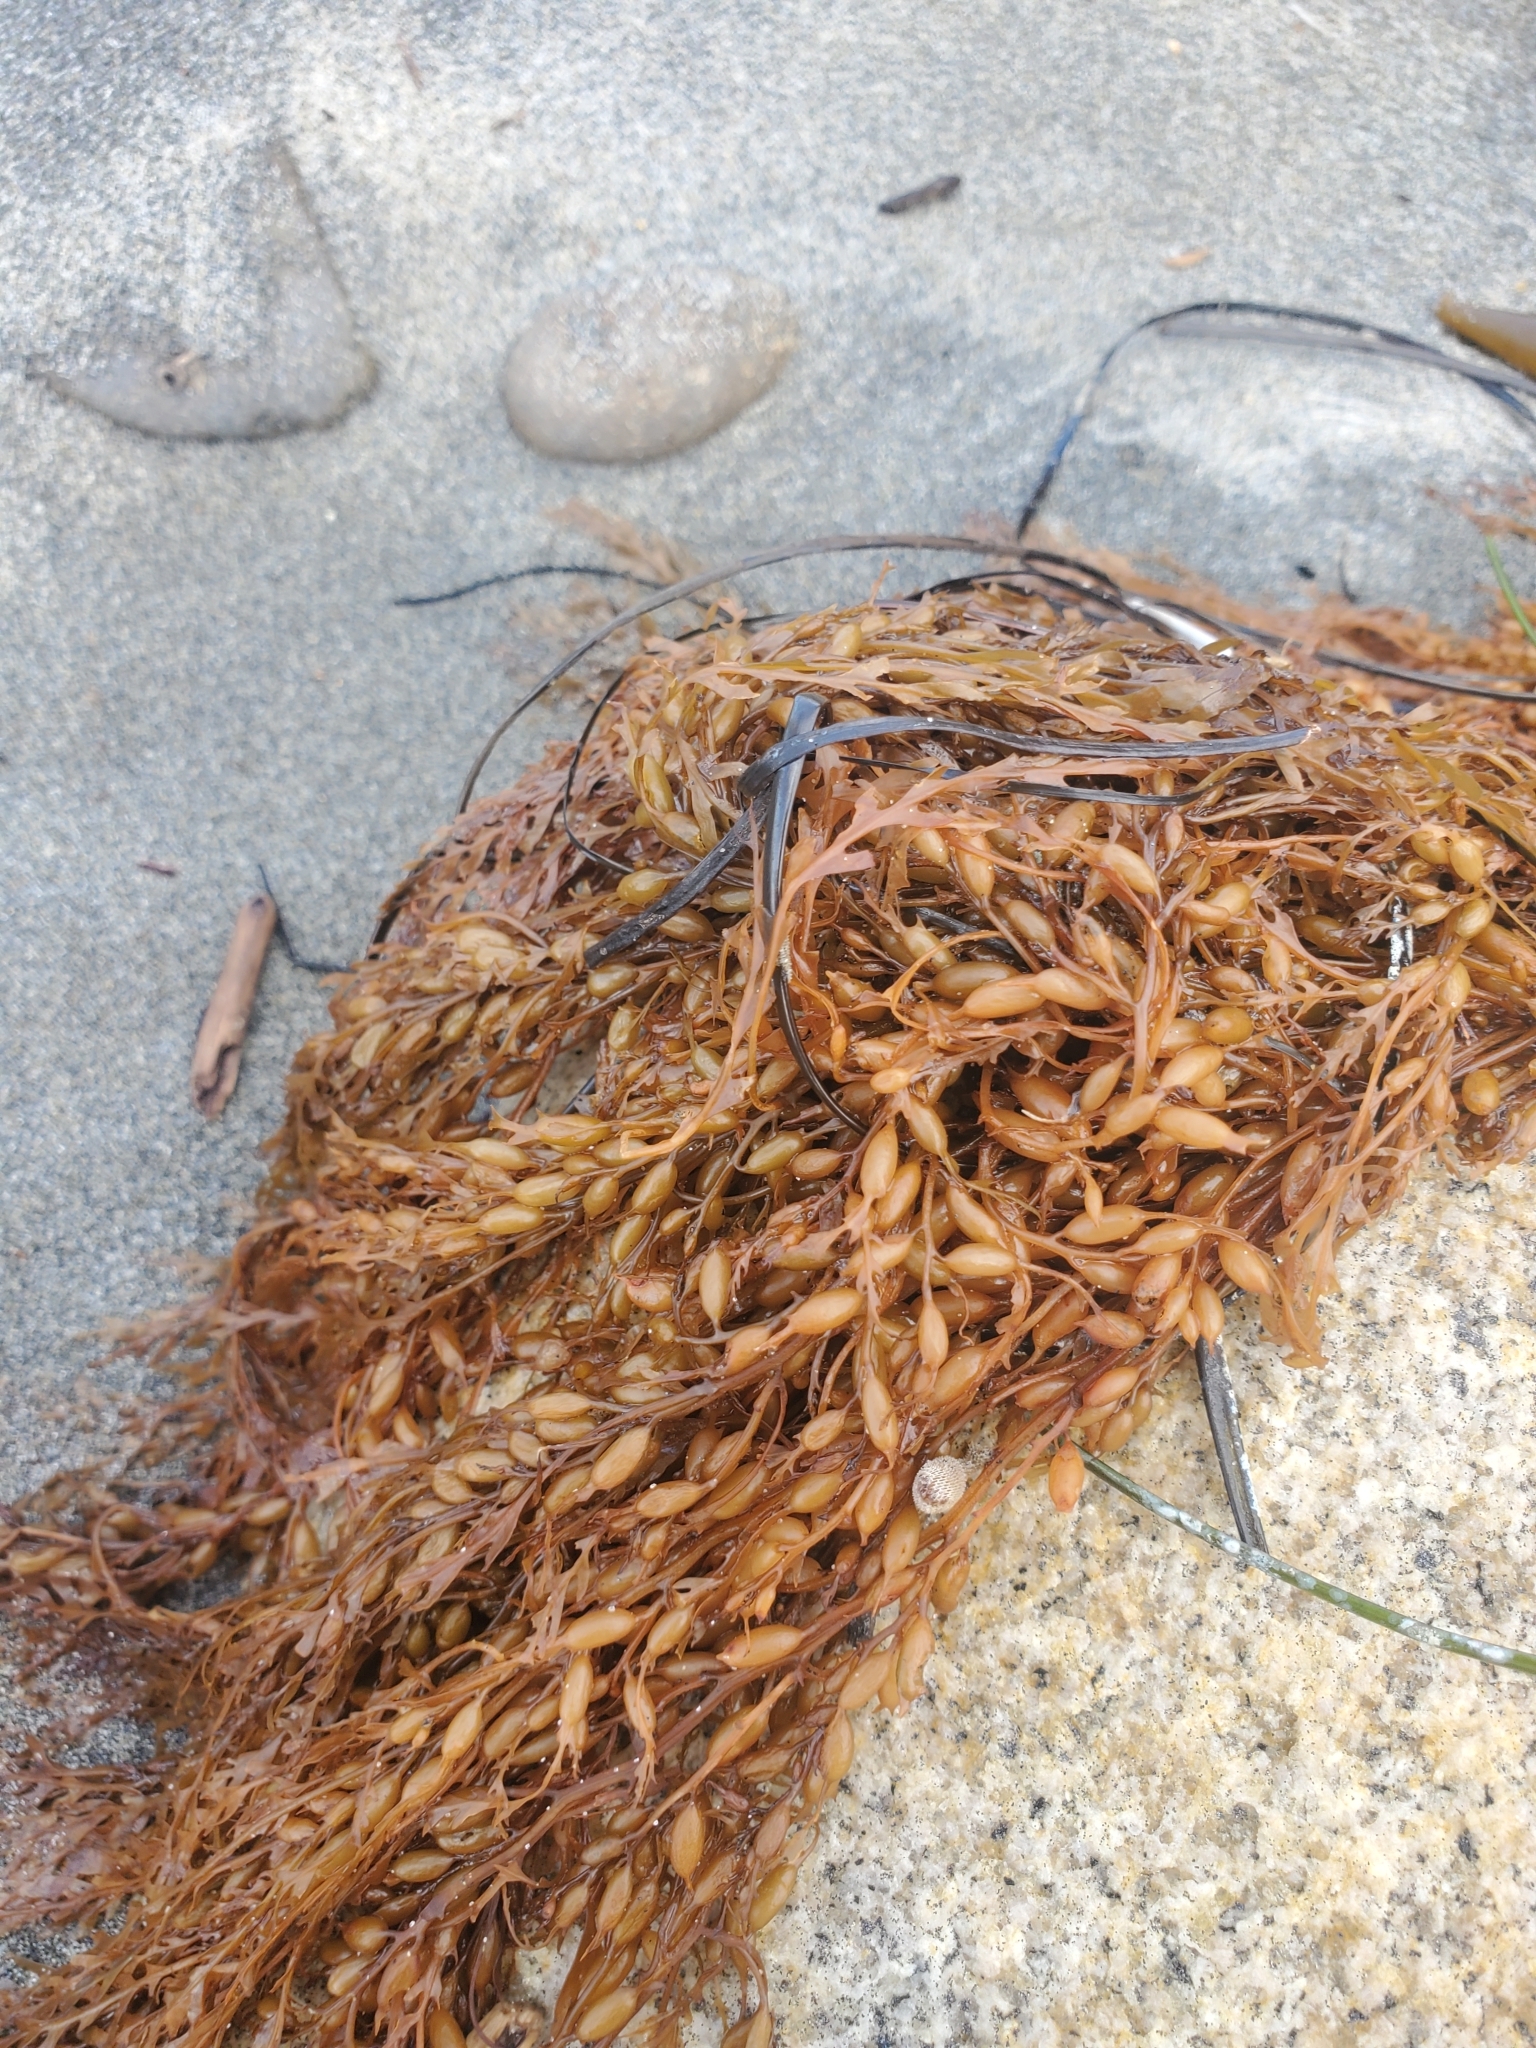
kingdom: Chromista
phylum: Ochrophyta
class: Phaeophyceae
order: Fucales
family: Sargassaceae
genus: Sargassum
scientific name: Sargassum horneri
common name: Devil weed
